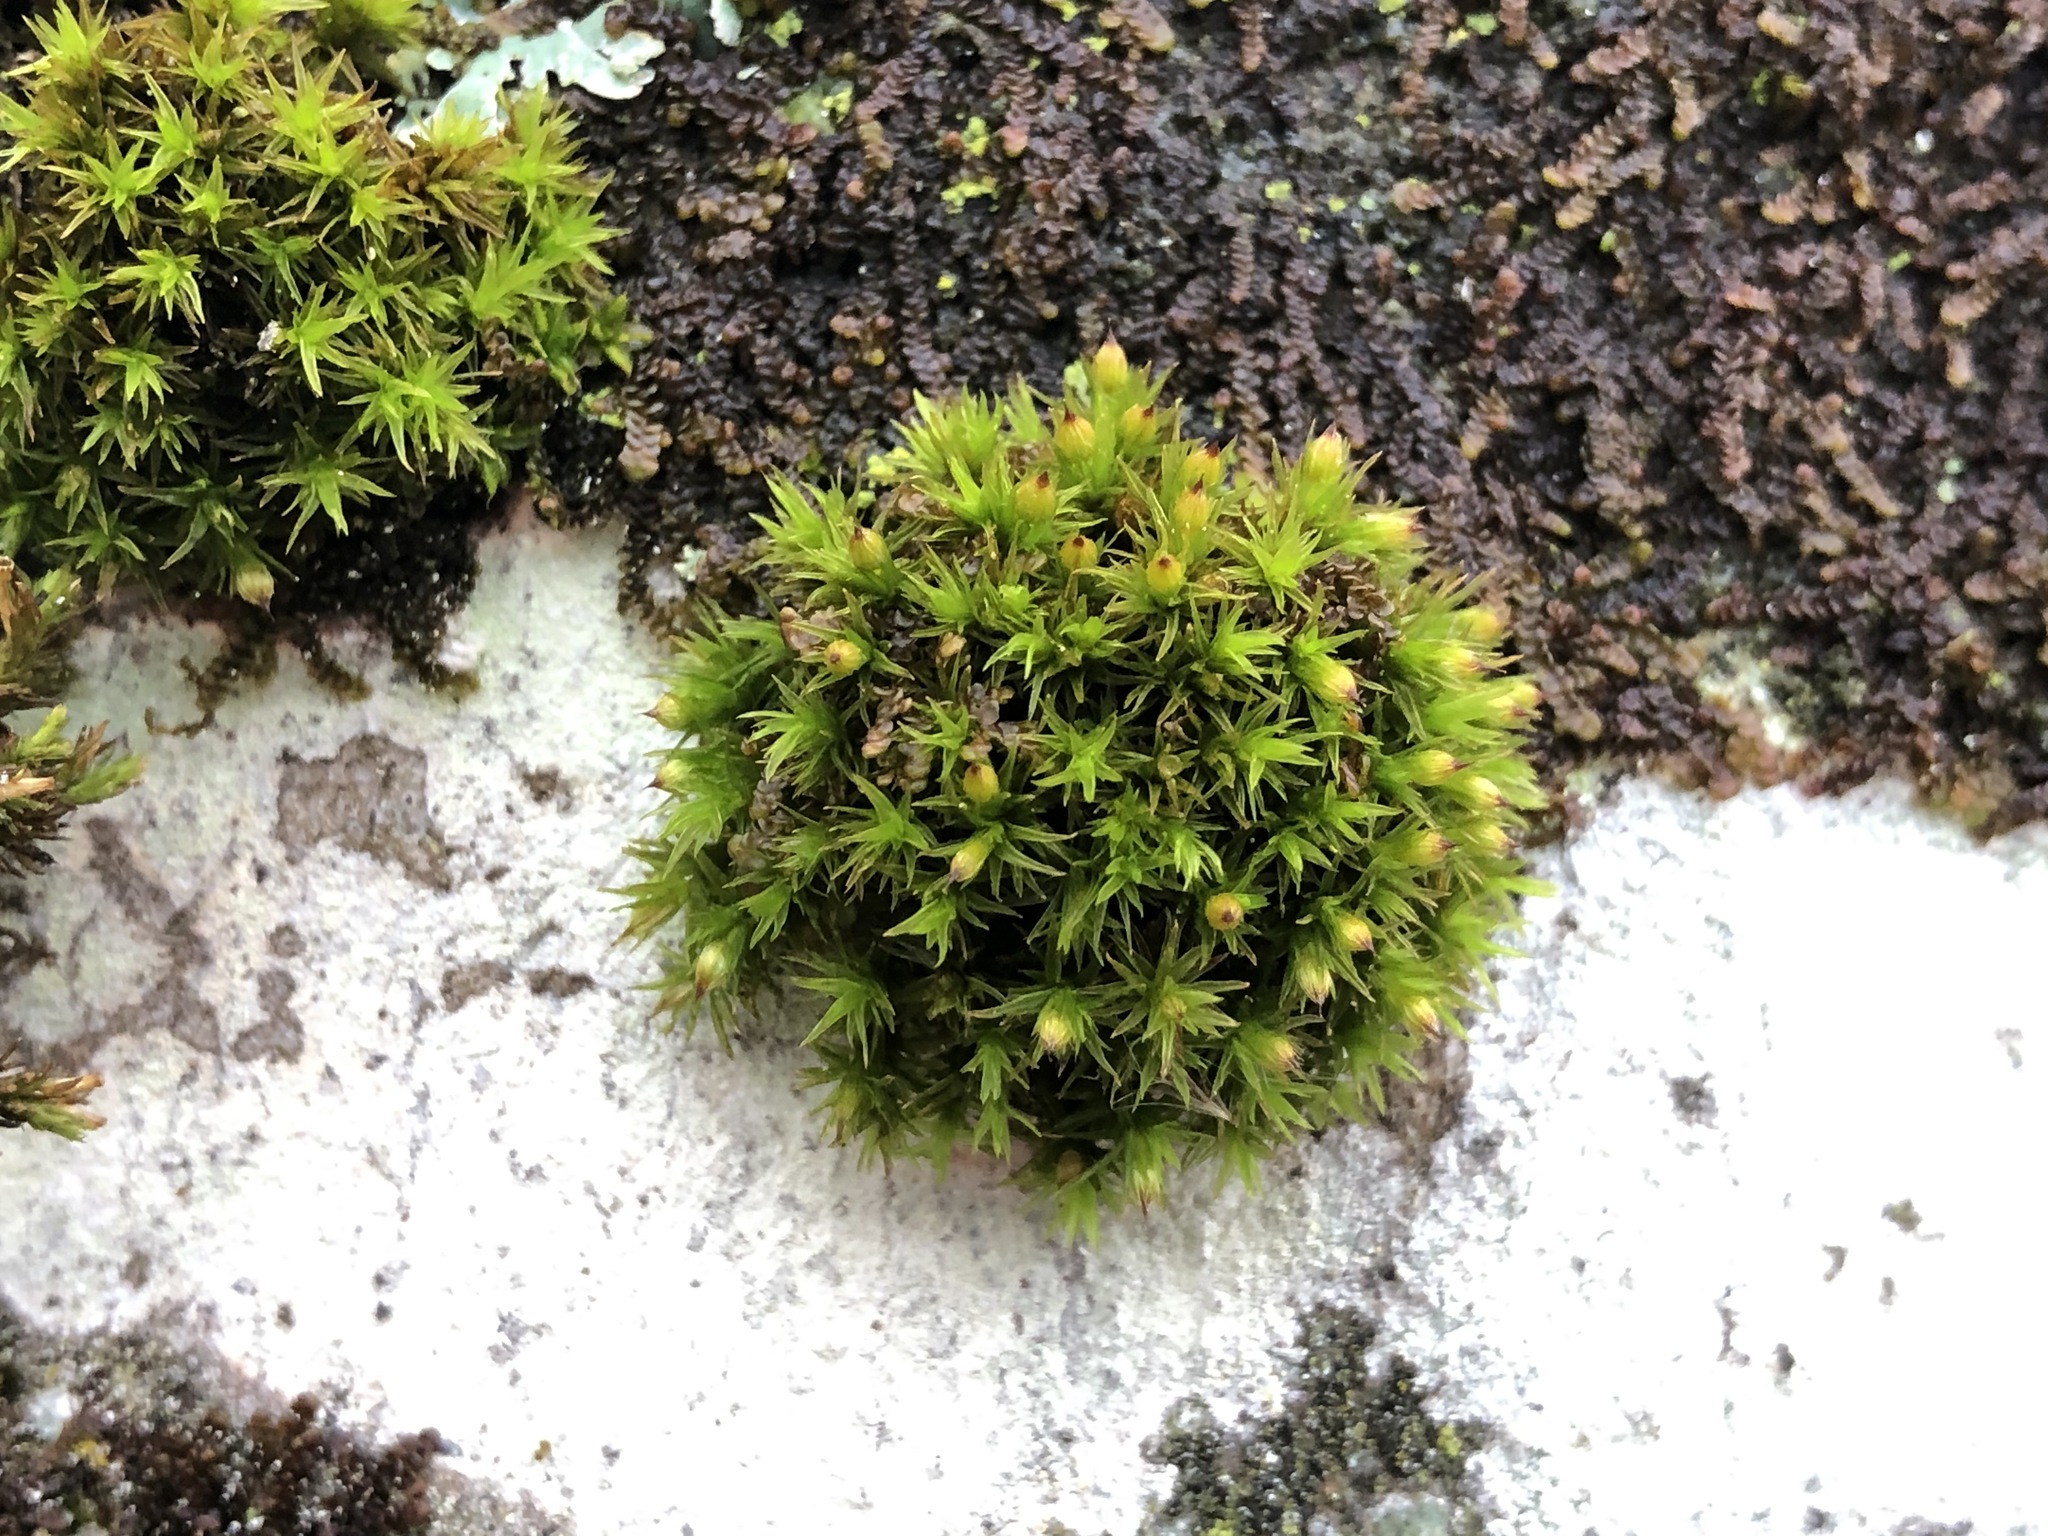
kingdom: Plantae
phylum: Bryophyta
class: Bryopsida
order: Orthotrichales
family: Orthotrichaceae
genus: Orthotrichum
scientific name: Orthotrichum stramineum
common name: Straw bristle-moss
